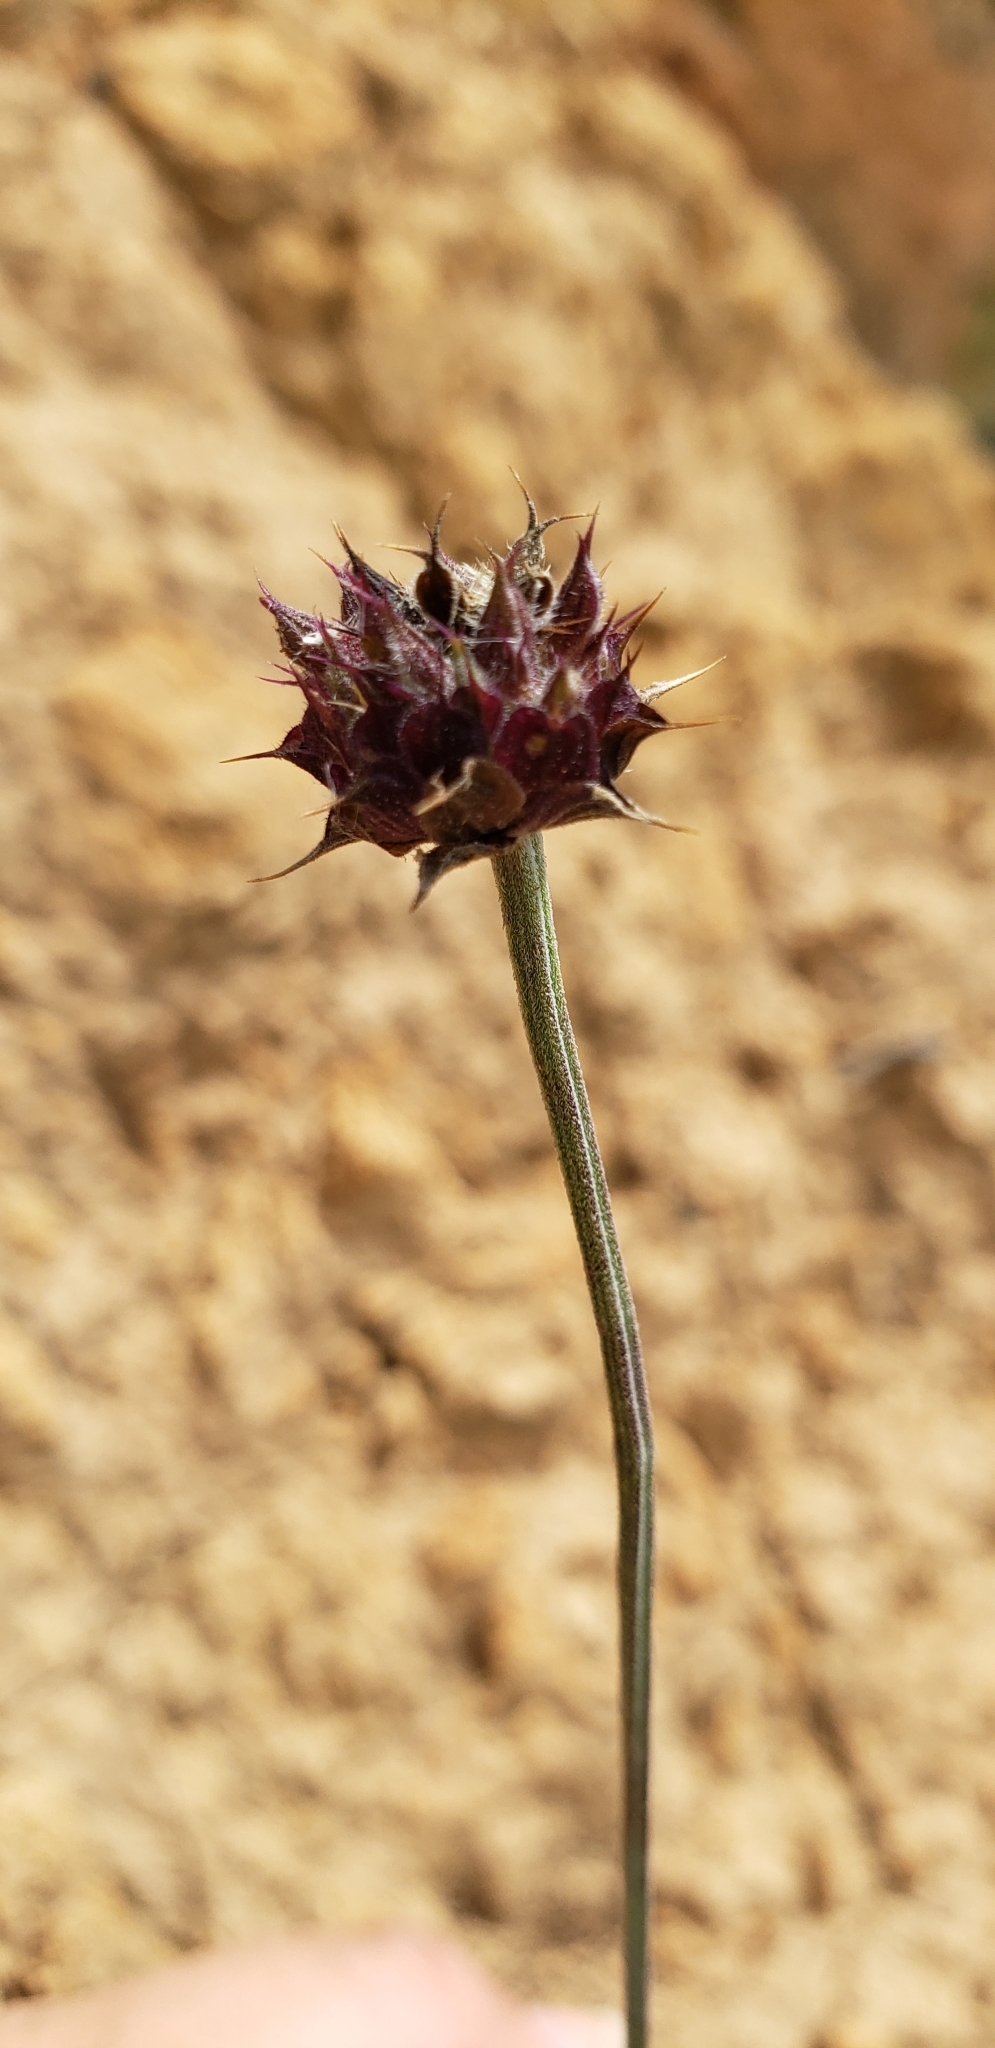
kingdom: Plantae
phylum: Tracheophyta
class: Magnoliopsida
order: Lamiales
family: Lamiaceae
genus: Salvia
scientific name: Salvia columbariae
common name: Chia
